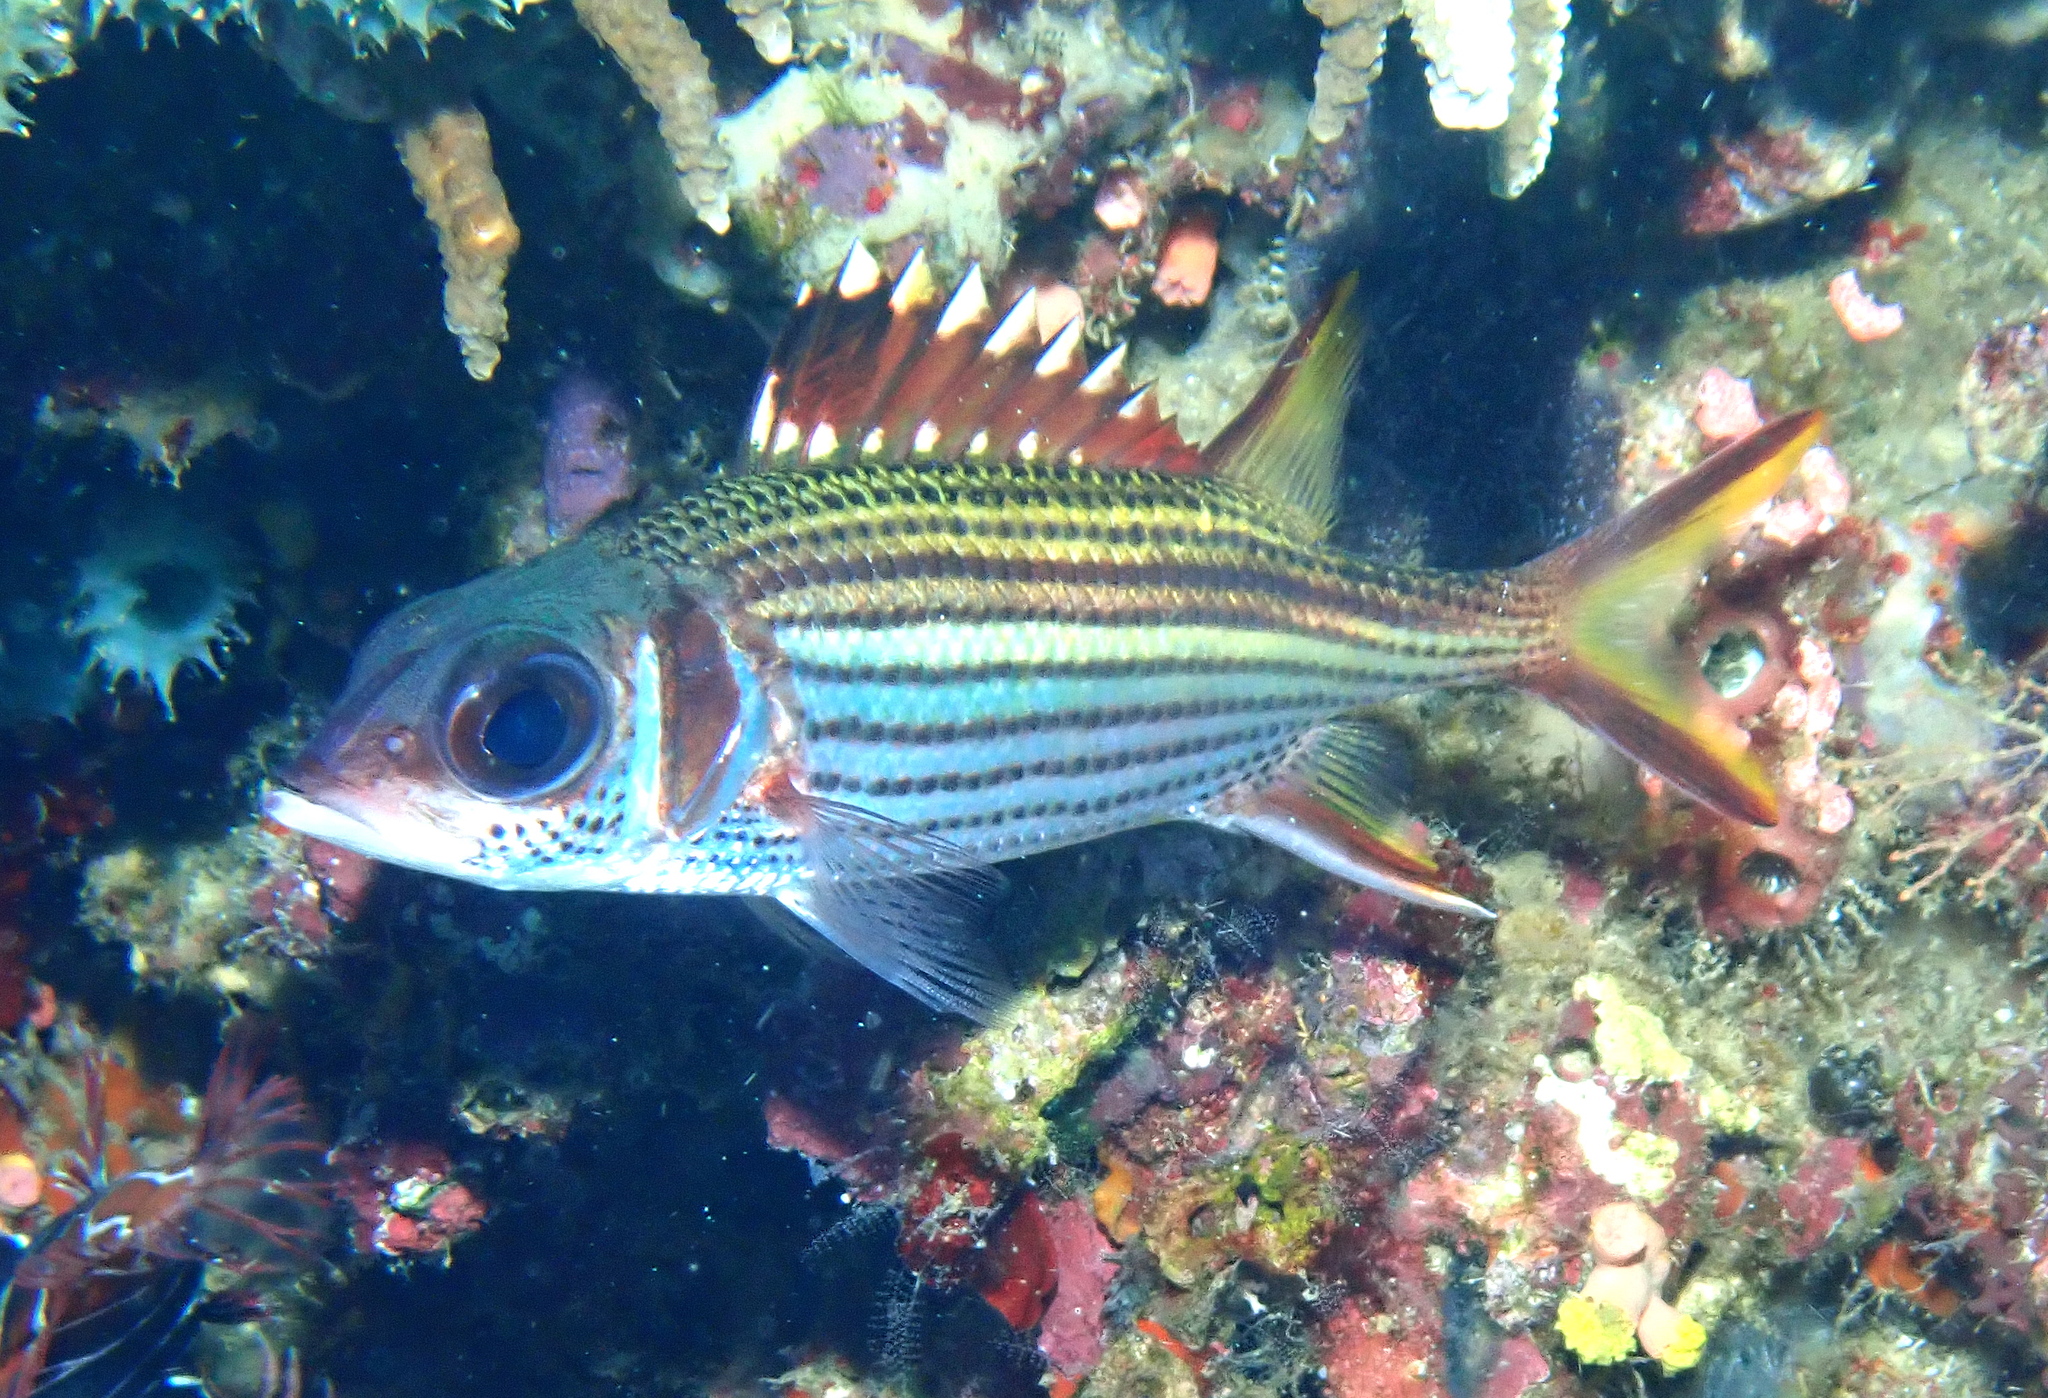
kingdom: Animalia
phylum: Chordata
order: Beryciformes
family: Holocentridae
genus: Neoniphon
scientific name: Neoniphon sammara
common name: Sammara squirrelfish
